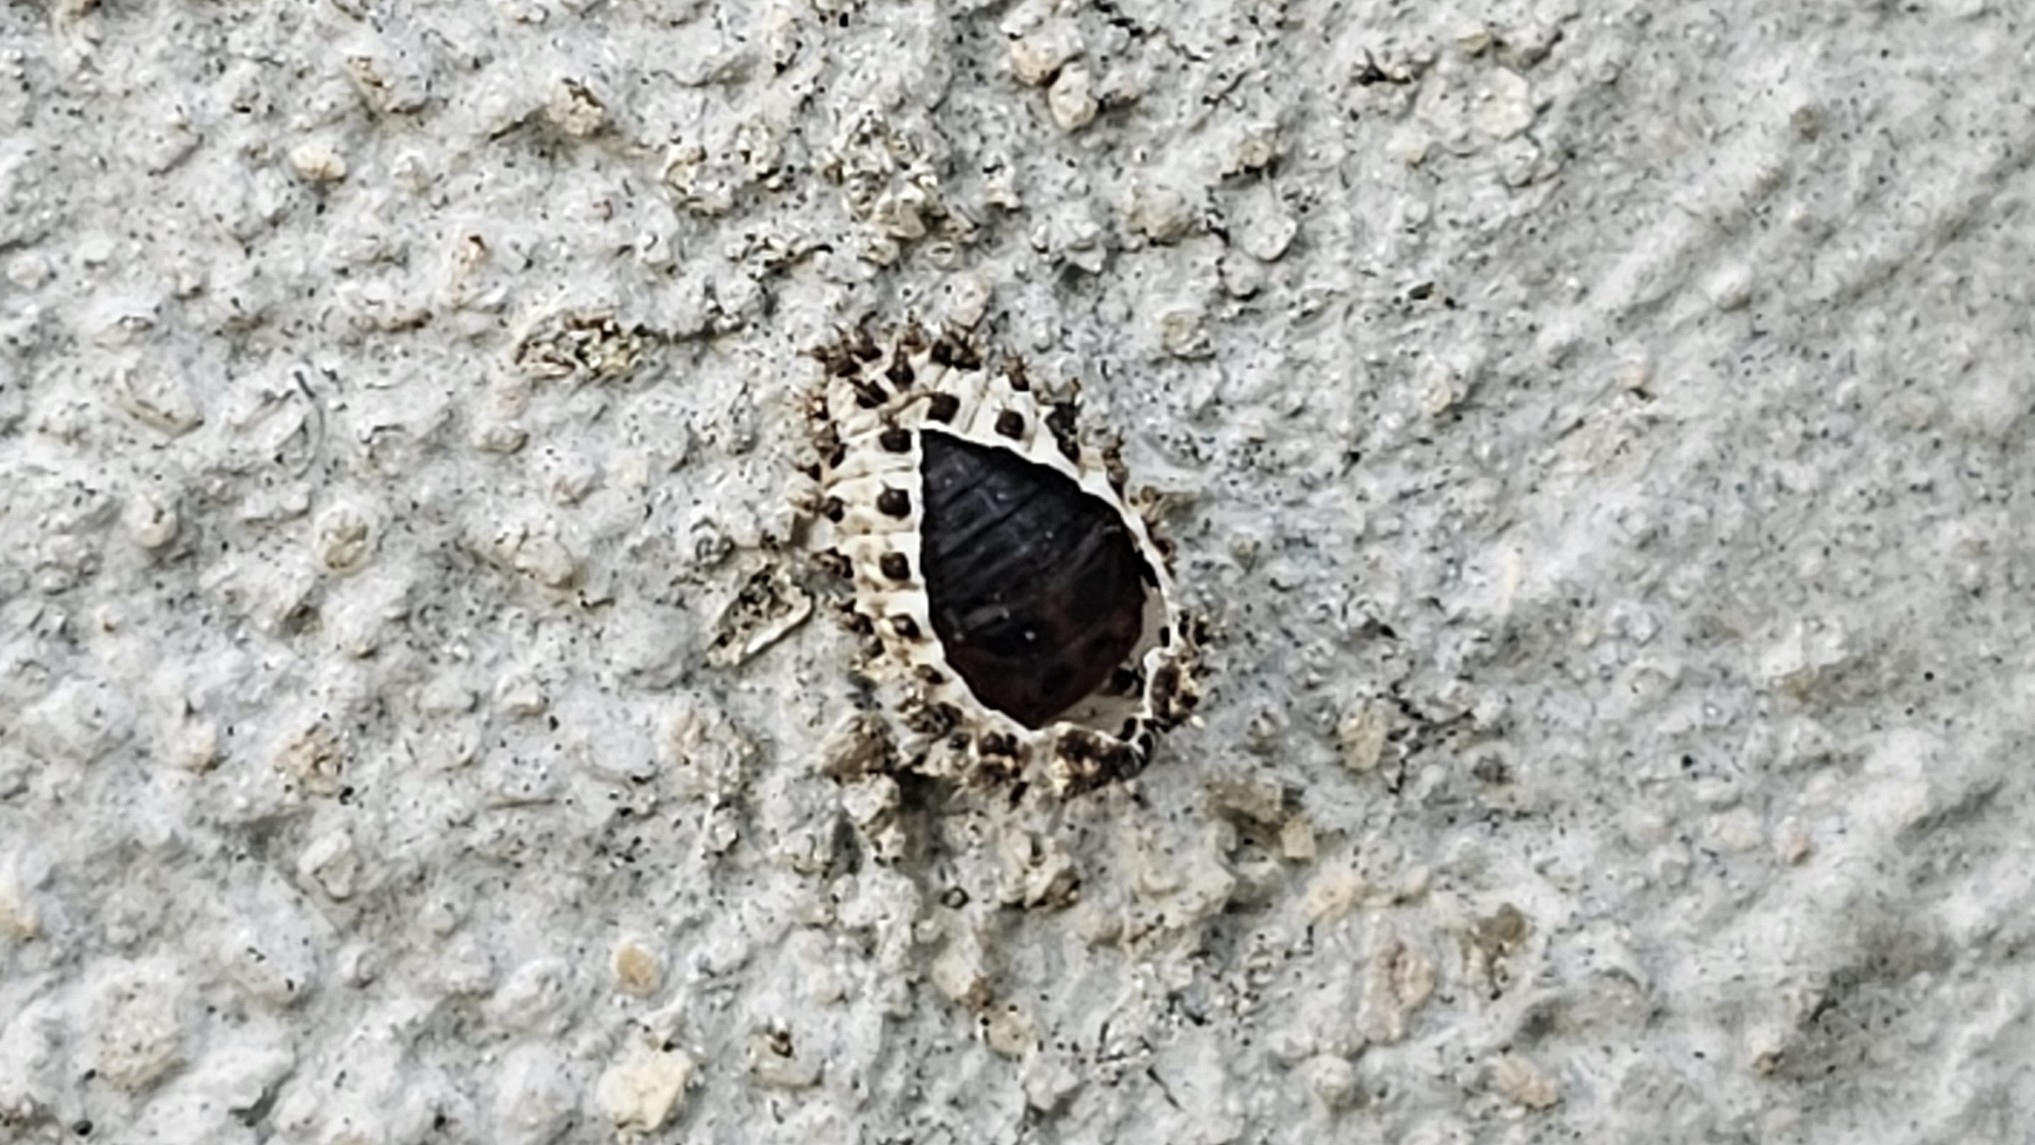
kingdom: Animalia
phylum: Arthropoda
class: Insecta
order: Coleoptera
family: Coccinellidae
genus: Brumus
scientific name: Brumus quadripustulatus
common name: Ladybird beetle
